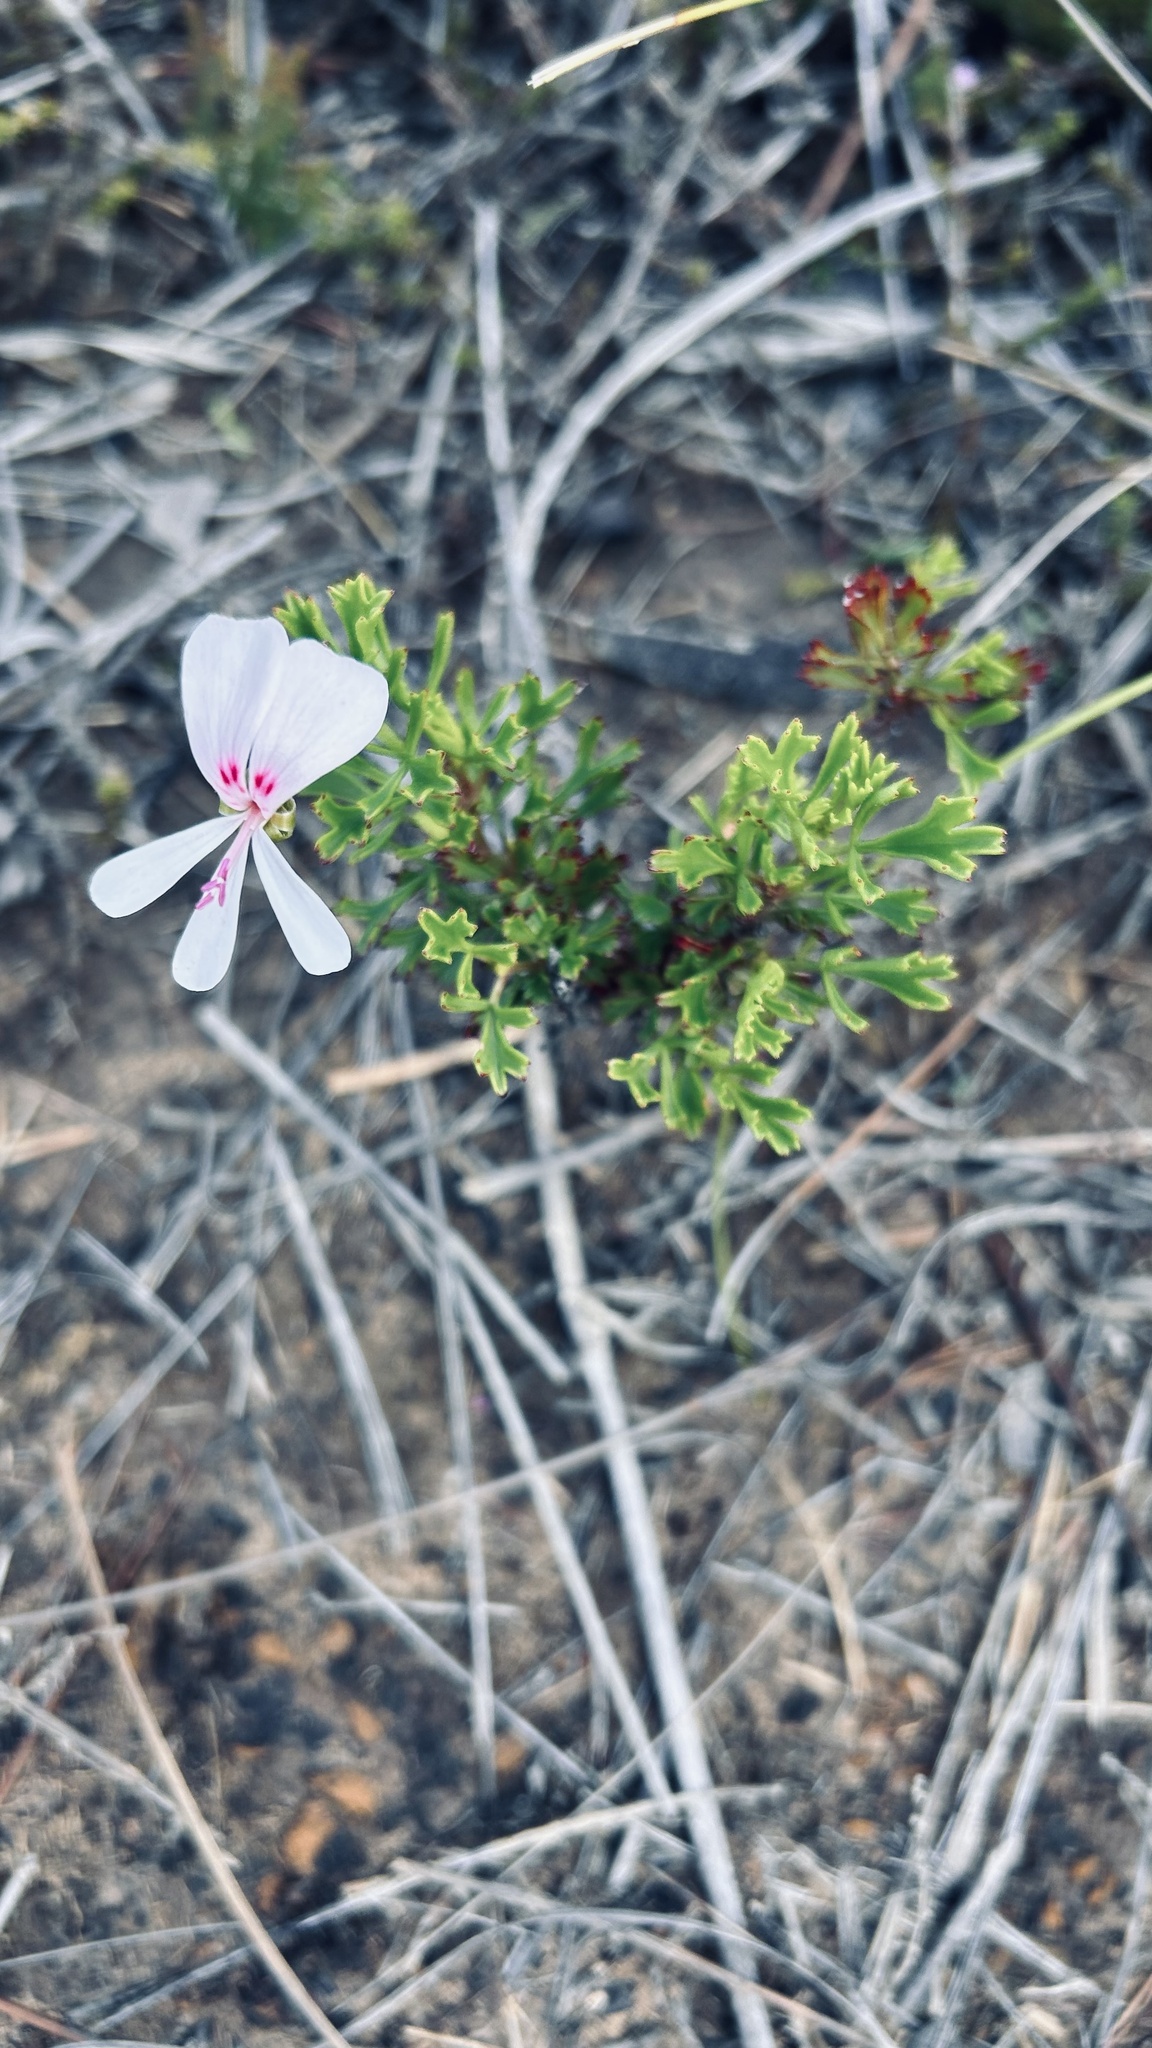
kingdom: Plantae
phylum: Tracheophyta
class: Magnoliopsida
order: Geraniales
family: Geraniaceae
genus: Pelargonium
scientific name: Pelargonium fruticosum
